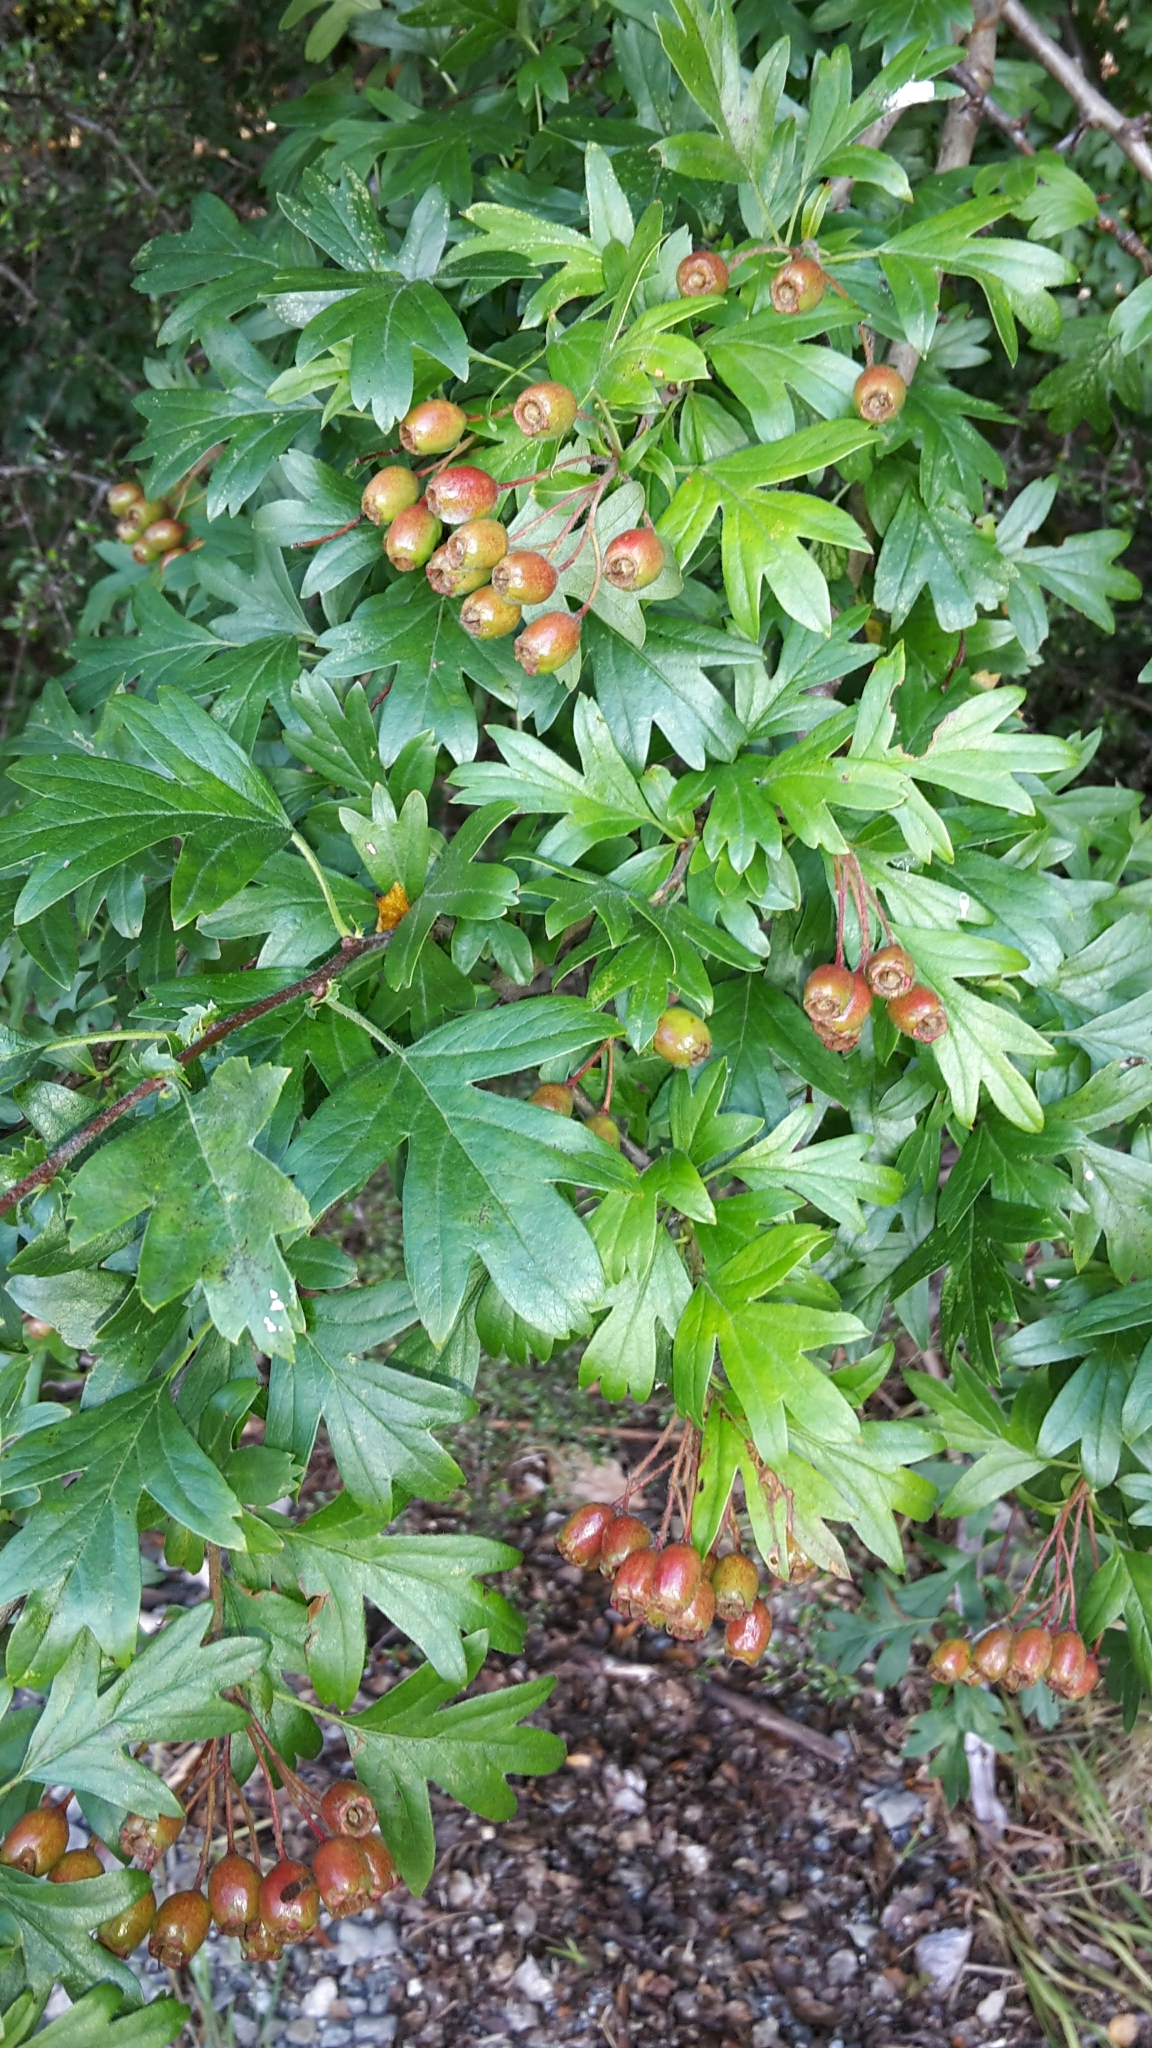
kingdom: Plantae
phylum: Tracheophyta
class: Magnoliopsida
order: Rosales
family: Rosaceae
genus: Crataegus
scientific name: Crataegus monogyna
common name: Hawthorn
